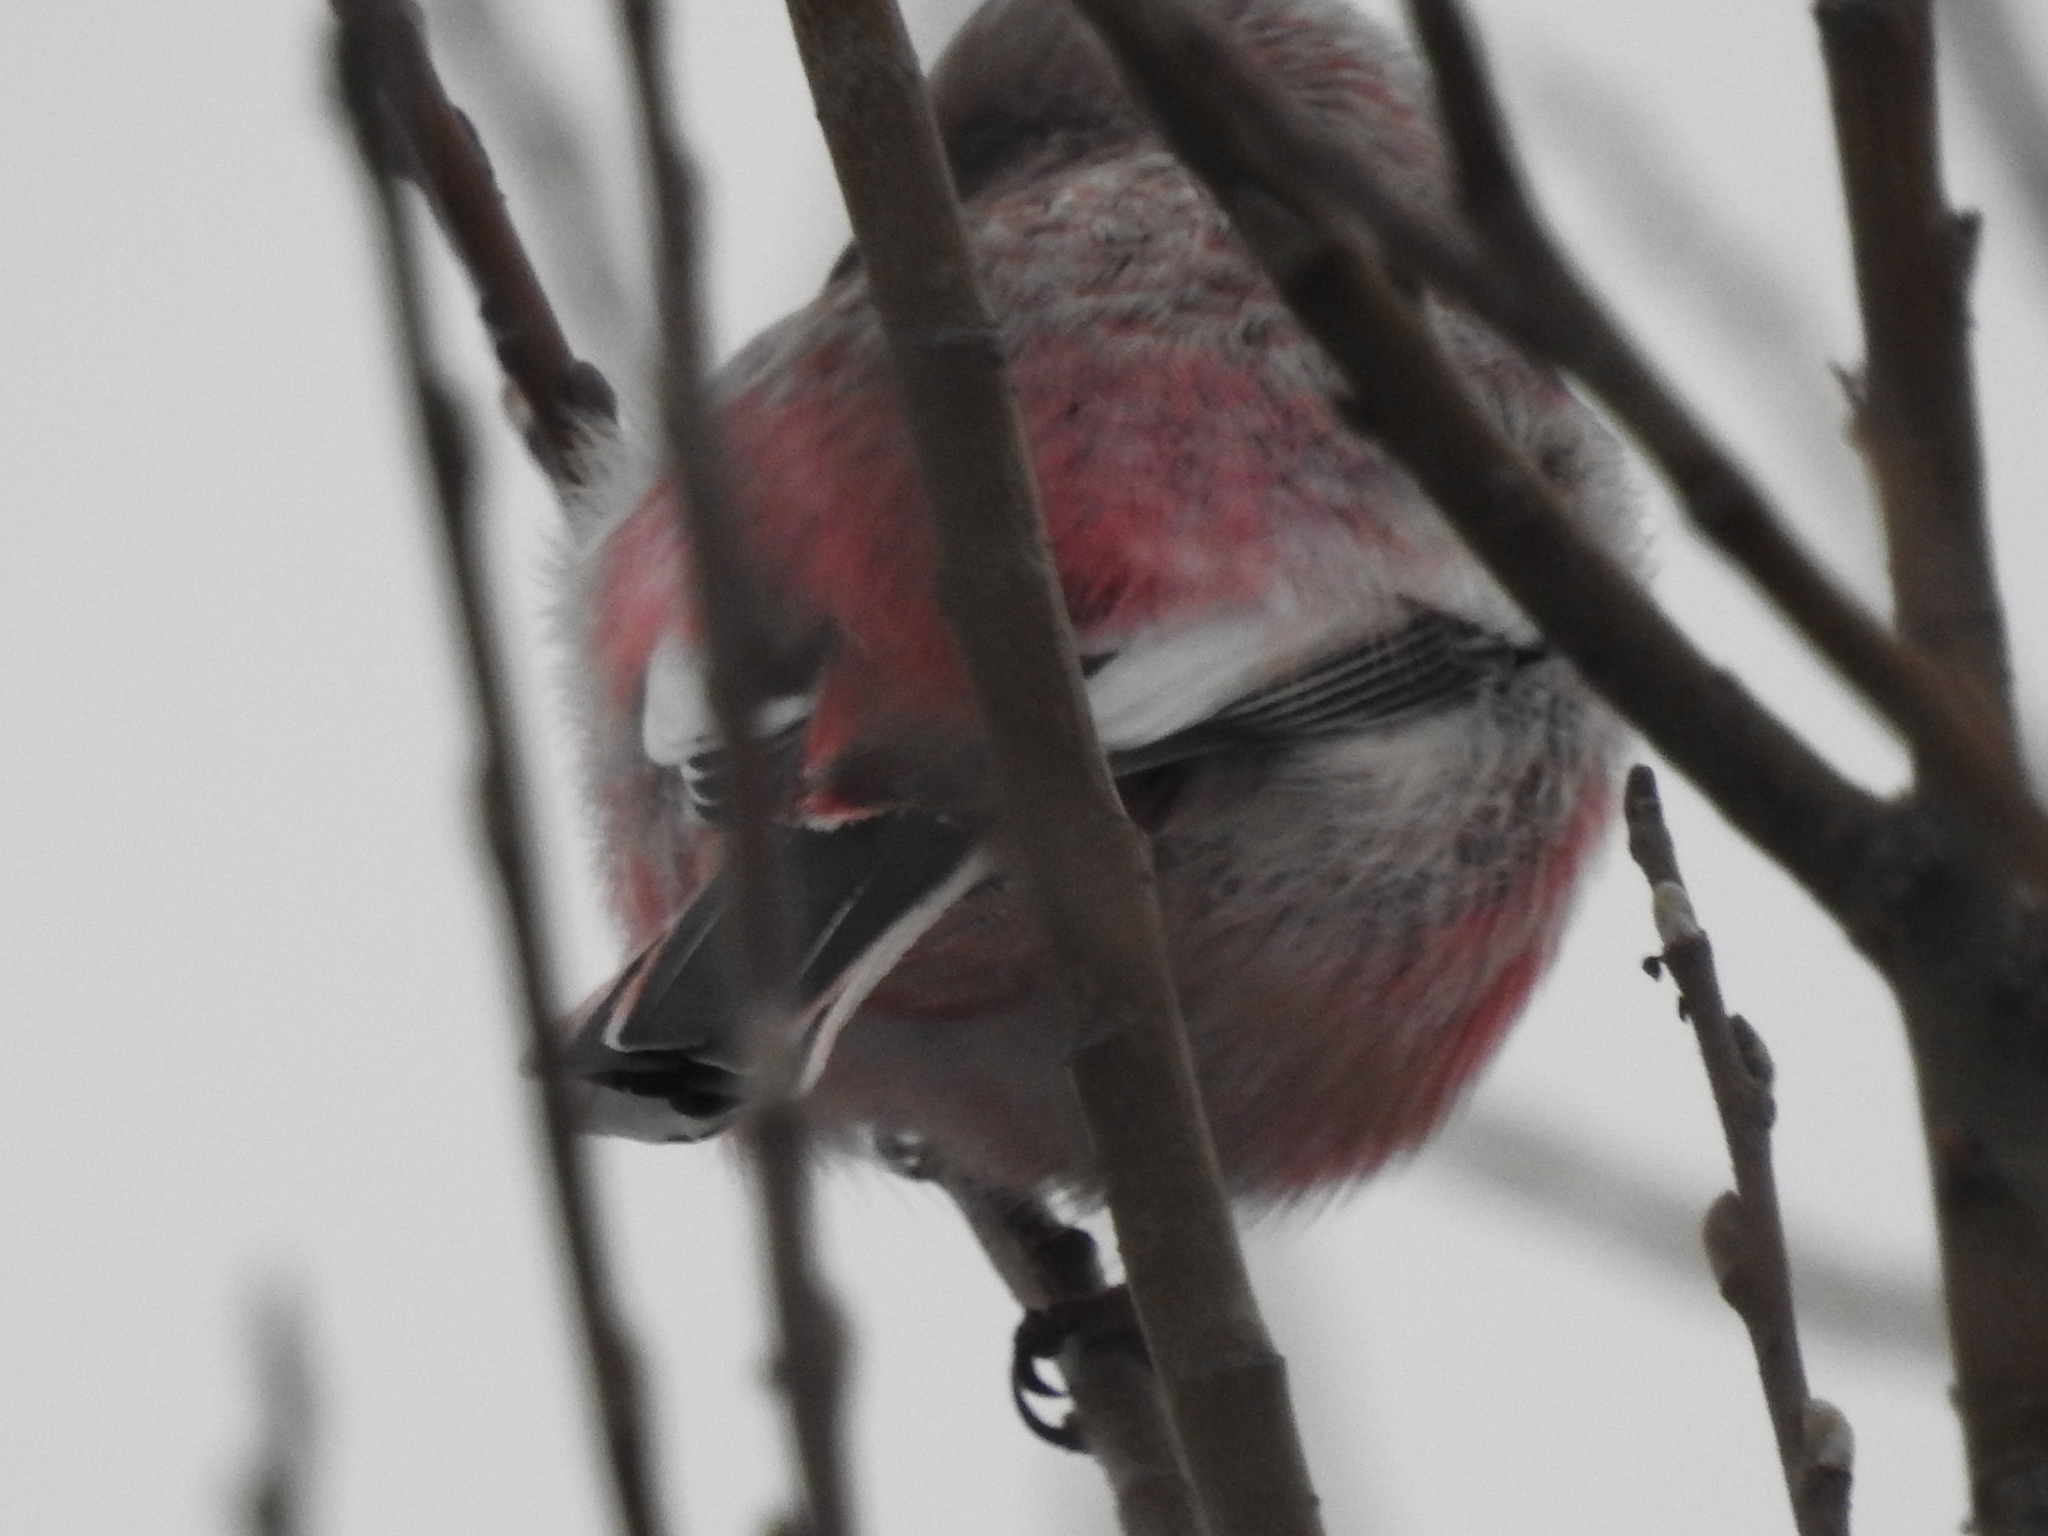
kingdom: Animalia
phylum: Chordata
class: Aves
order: Passeriformes
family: Fringillidae
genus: Carpodacus
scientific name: Carpodacus sibiricus
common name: Long-tailed rosefinch
